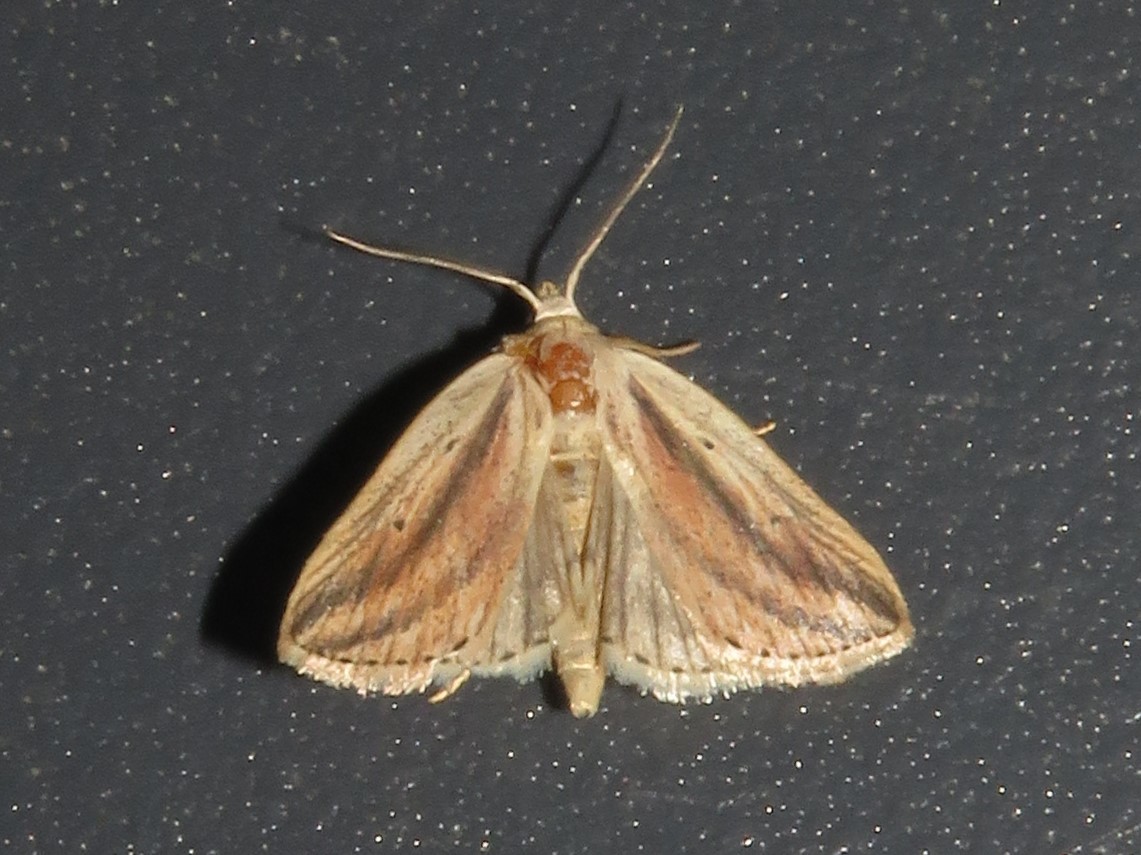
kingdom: Animalia
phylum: Arthropoda
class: Insecta
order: Lepidoptera
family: Noctuidae
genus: Amolita
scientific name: Amolita fessa
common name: Feeble grass moth
